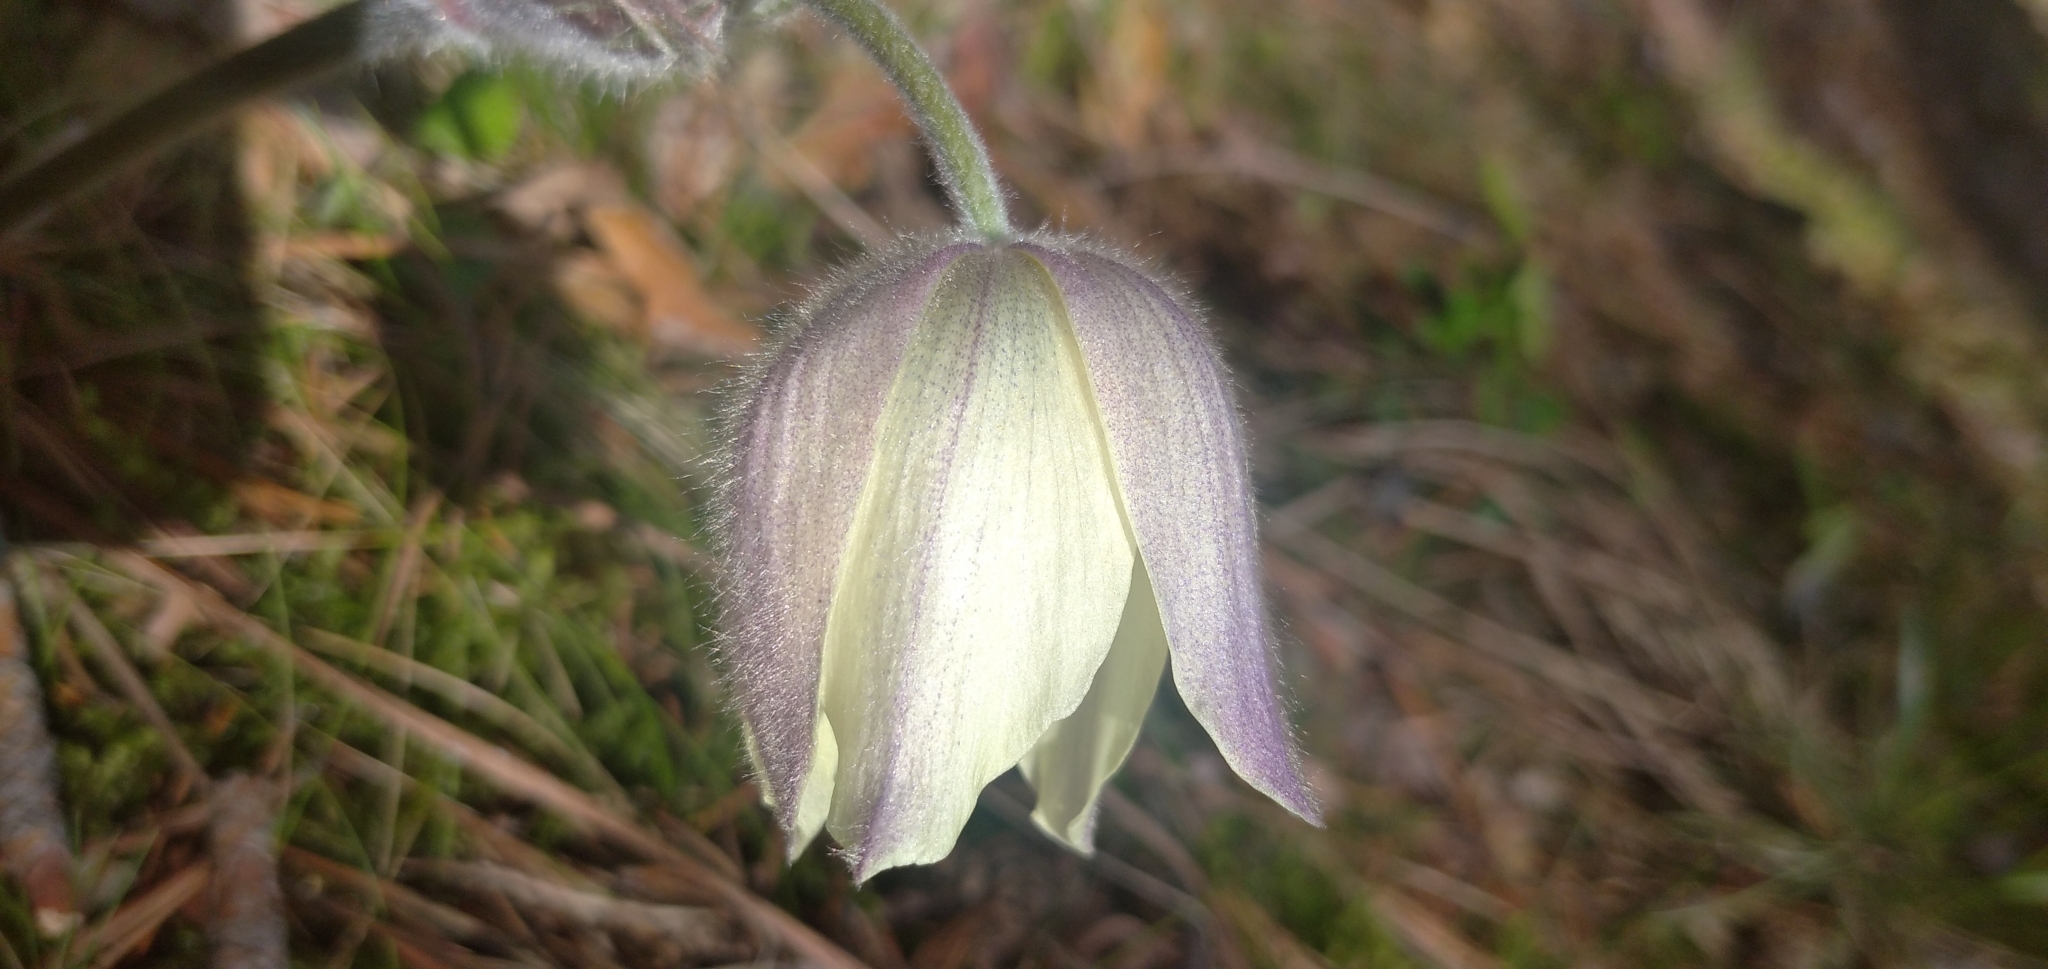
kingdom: Plantae
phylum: Tracheophyta
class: Magnoliopsida
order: Ranunculales
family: Ranunculaceae
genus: Pulsatilla
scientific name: Pulsatilla patens
